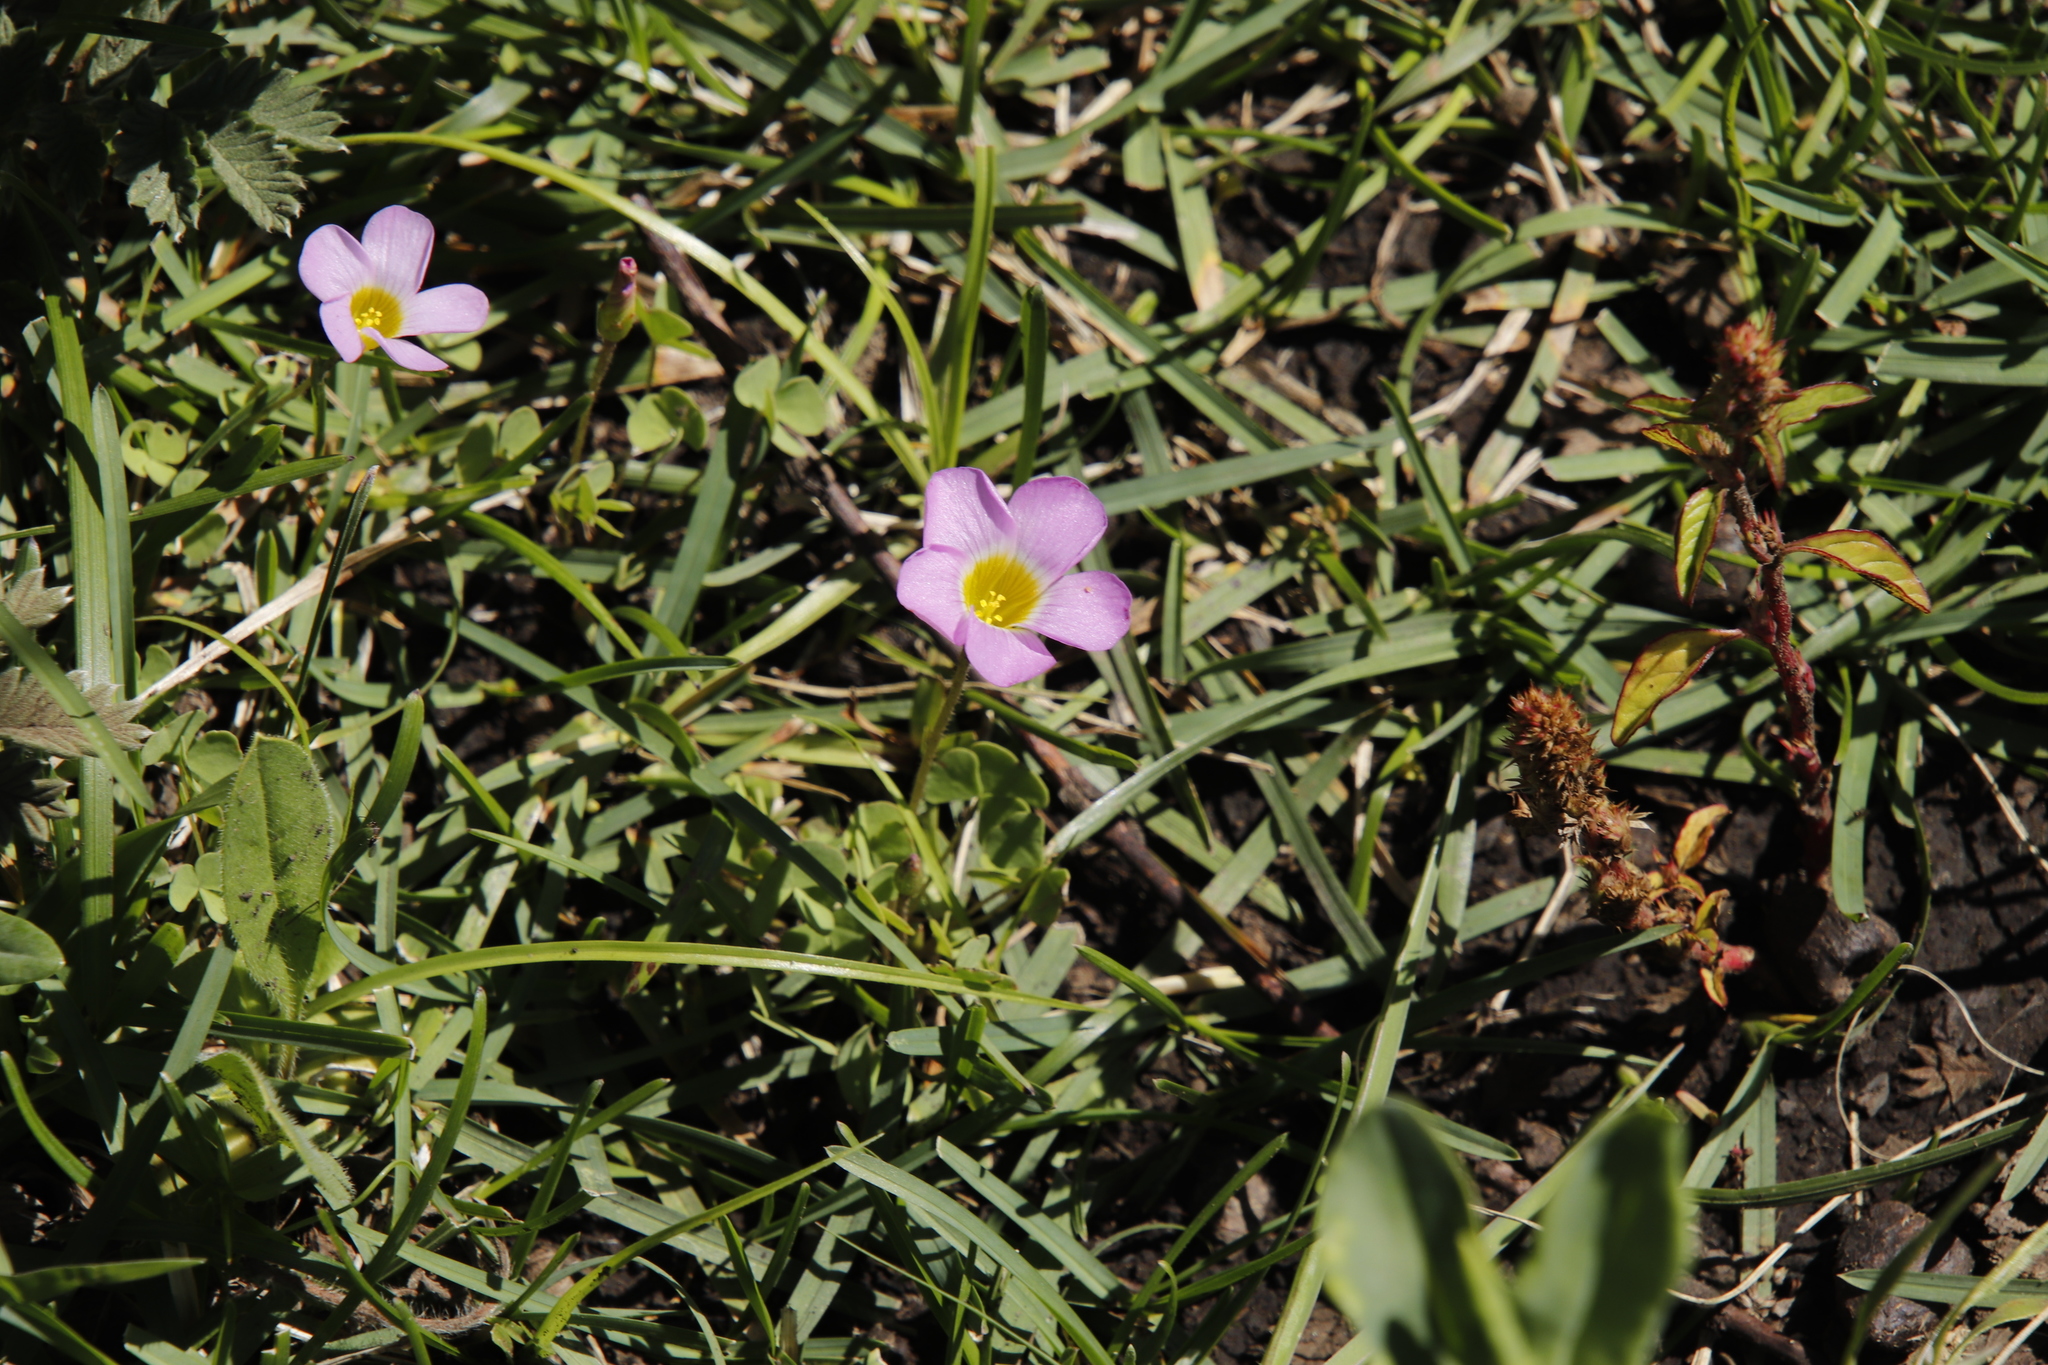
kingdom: Plantae
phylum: Tracheophyta
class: Magnoliopsida
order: Oxalidales
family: Oxalidaceae
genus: Oxalis
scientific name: Oxalis obliquifolia
